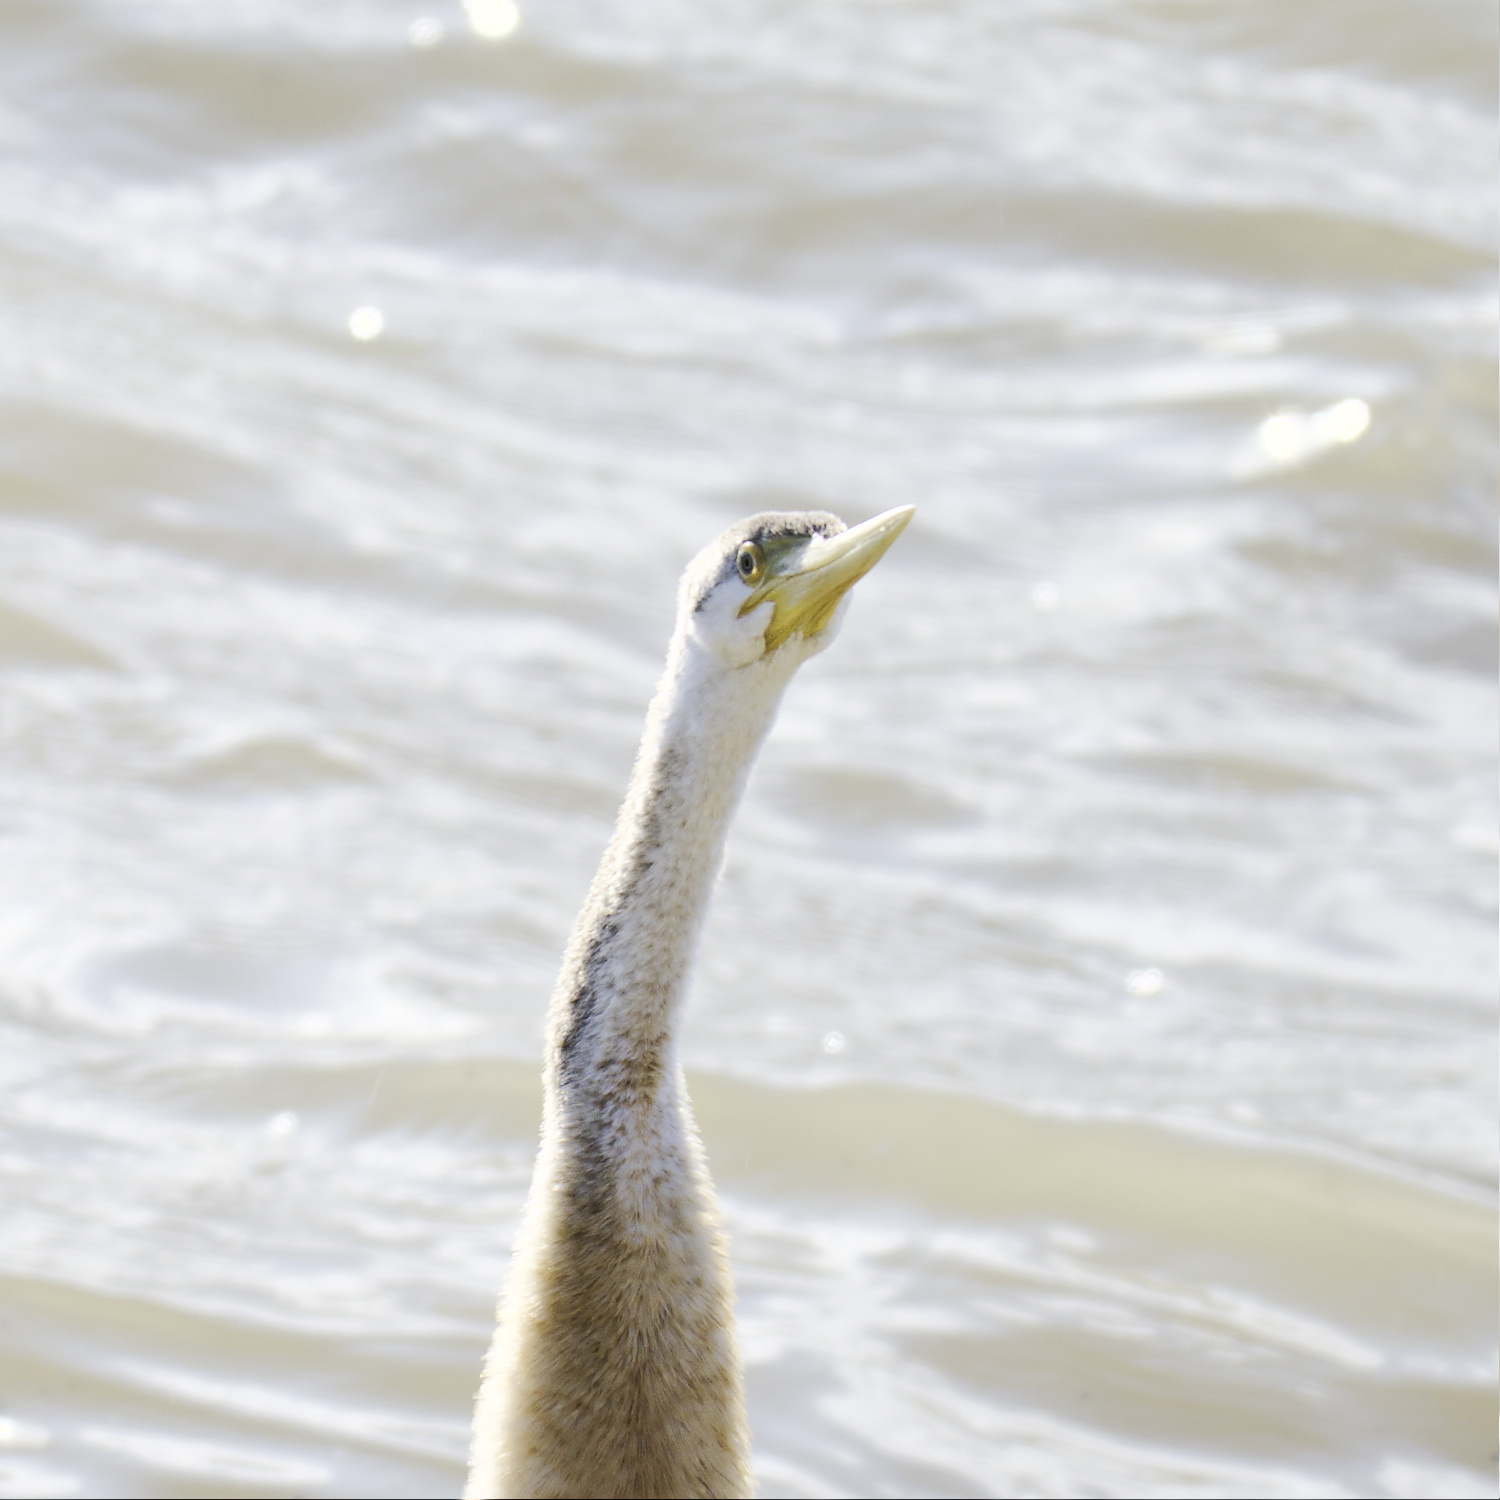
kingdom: Animalia
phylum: Chordata
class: Aves
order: Suliformes
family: Anhingidae
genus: Anhinga
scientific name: Anhinga novaehollandiae
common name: Australasian darter
